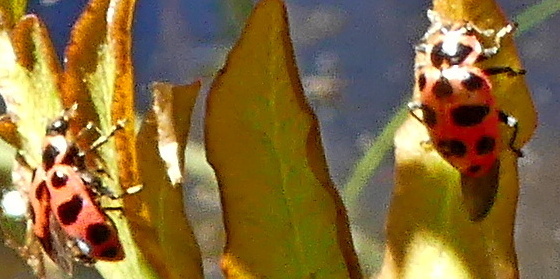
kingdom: Animalia
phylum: Arthropoda
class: Insecta
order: Coleoptera
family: Coccinellidae
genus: Coleomegilla
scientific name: Coleomegilla maculata
